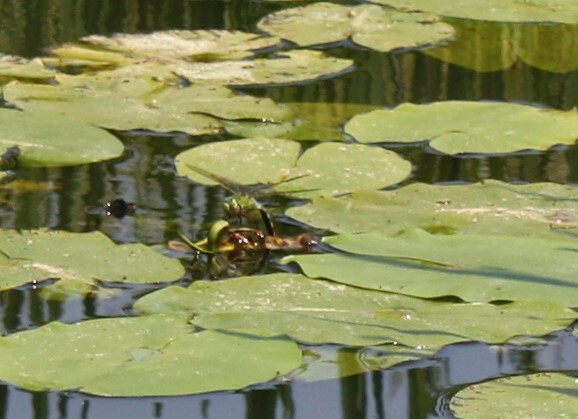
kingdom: Animalia
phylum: Arthropoda
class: Insecta
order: Odonata
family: Aeshnidae
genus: Anax
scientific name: Anax imperator
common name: Emperor dragonfly
